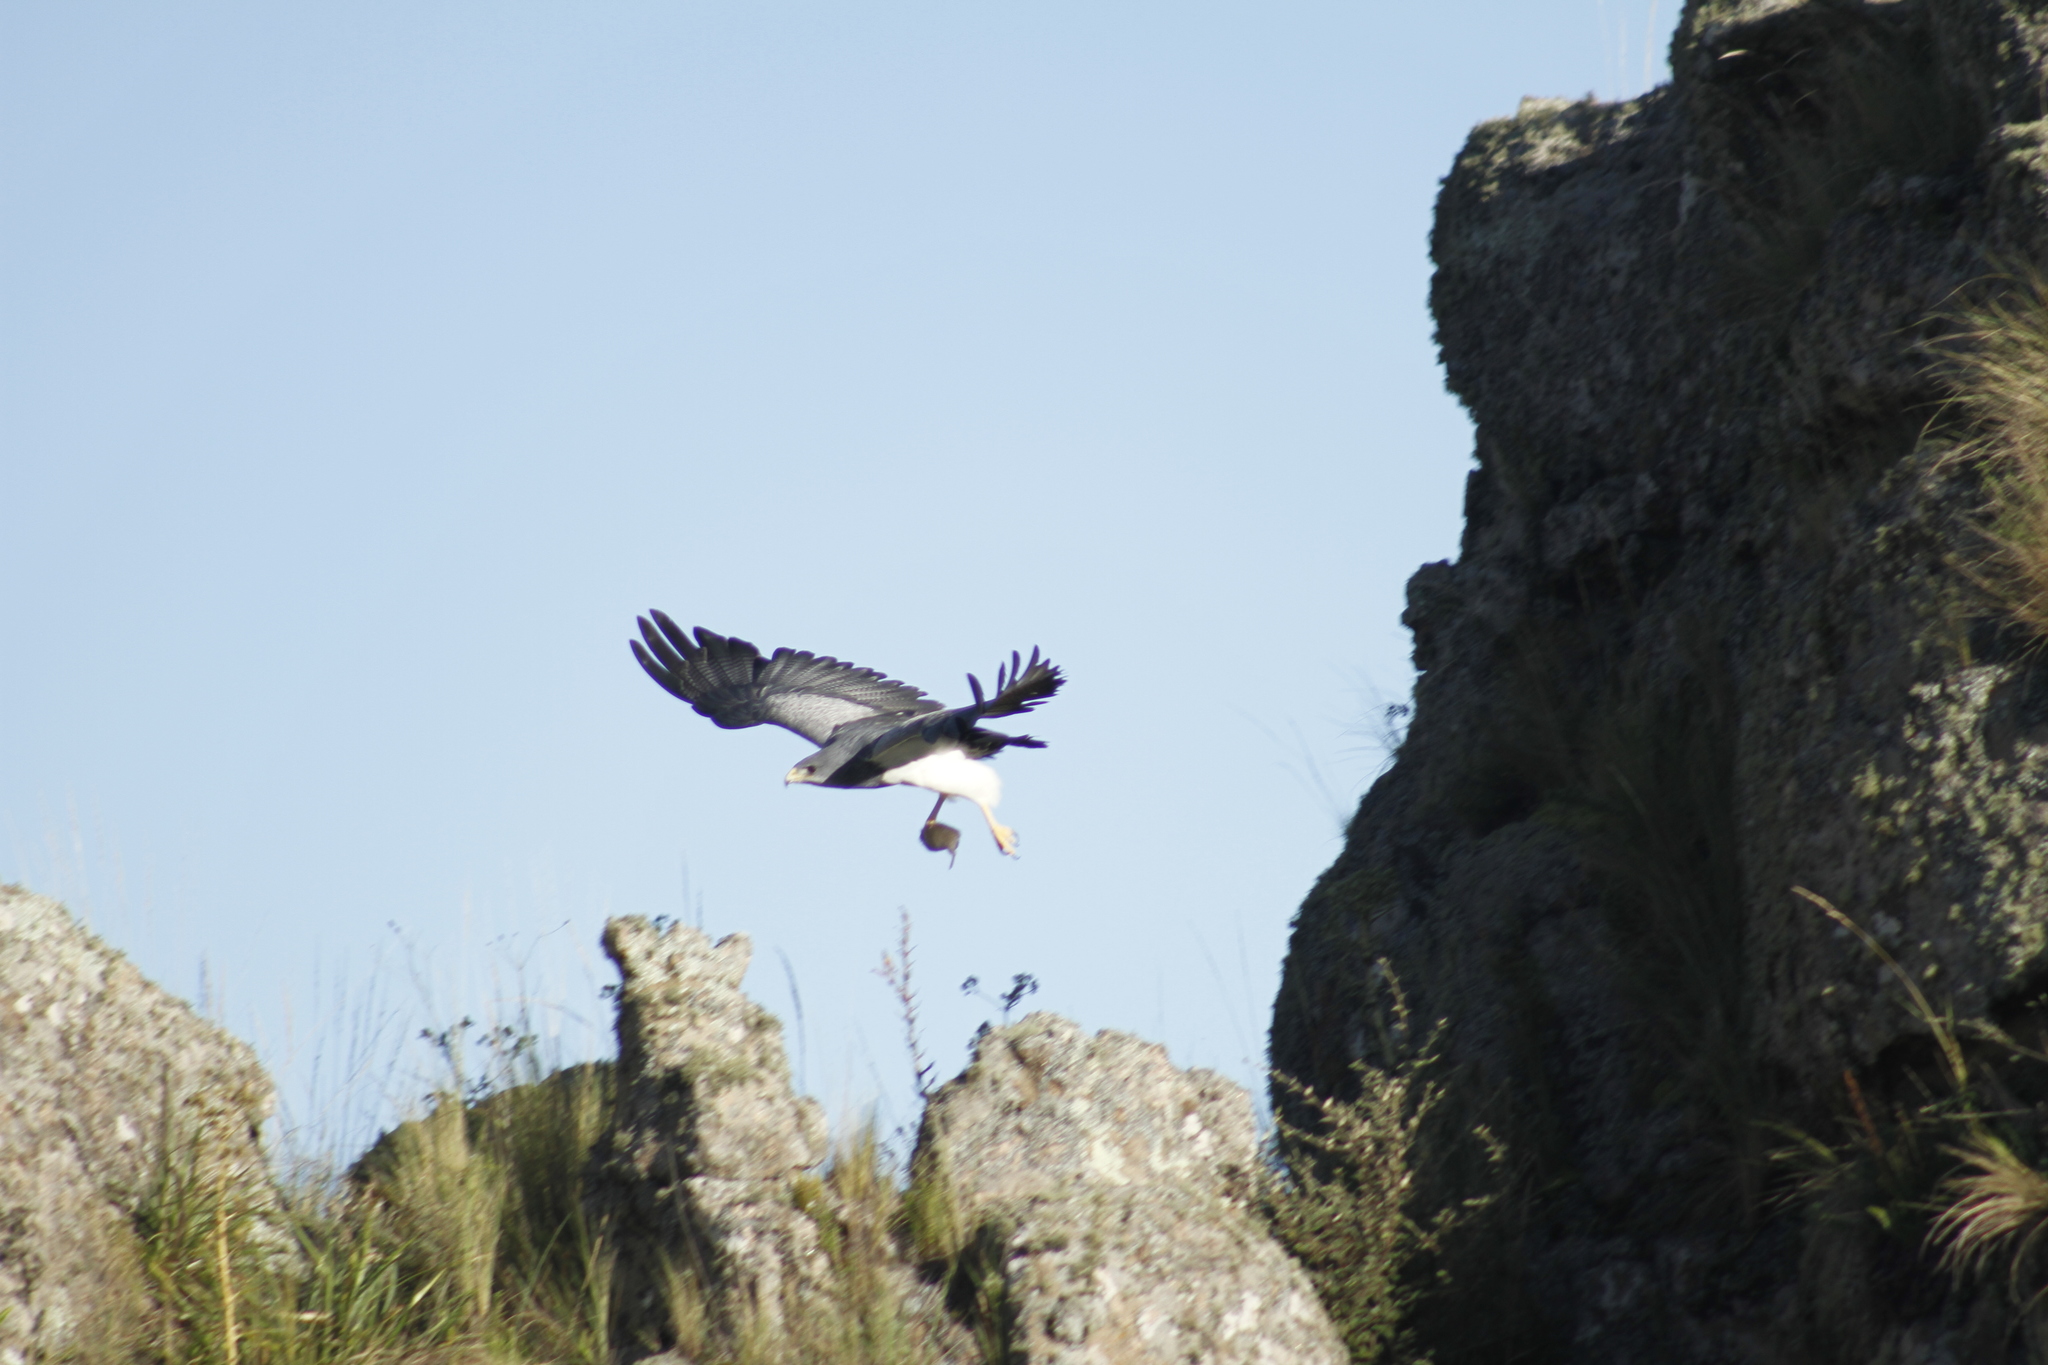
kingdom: Animalia
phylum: Chordata
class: Aves
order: Accipitriformes
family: Accipitridae
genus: Geranoaetus
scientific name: Geranoaetus melanoleucus
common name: Black-chested buzzard-eagle
